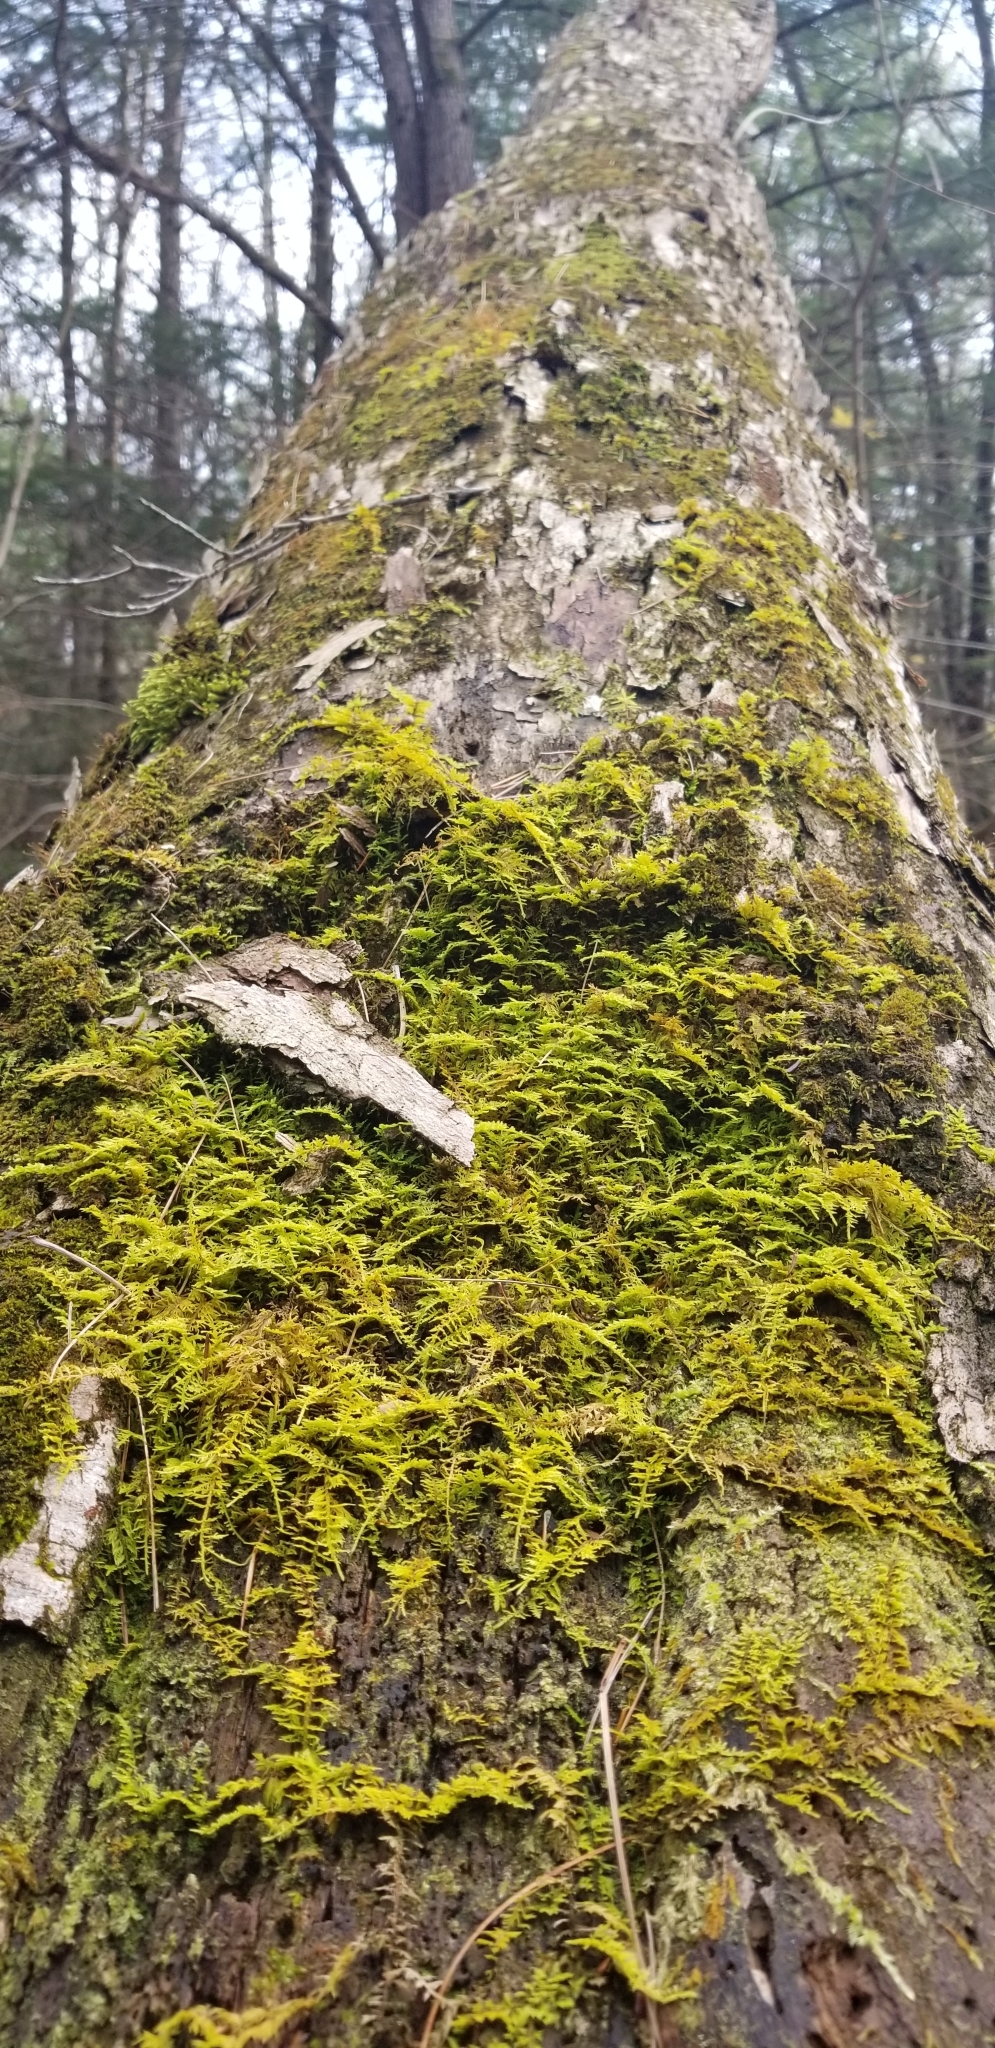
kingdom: Plantae
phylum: Bryophyta
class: Bryopsida
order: Hypnales
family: Thuidiaceae
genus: Thuidium
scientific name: Thuidium delicatulum
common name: Delicate fern moss
